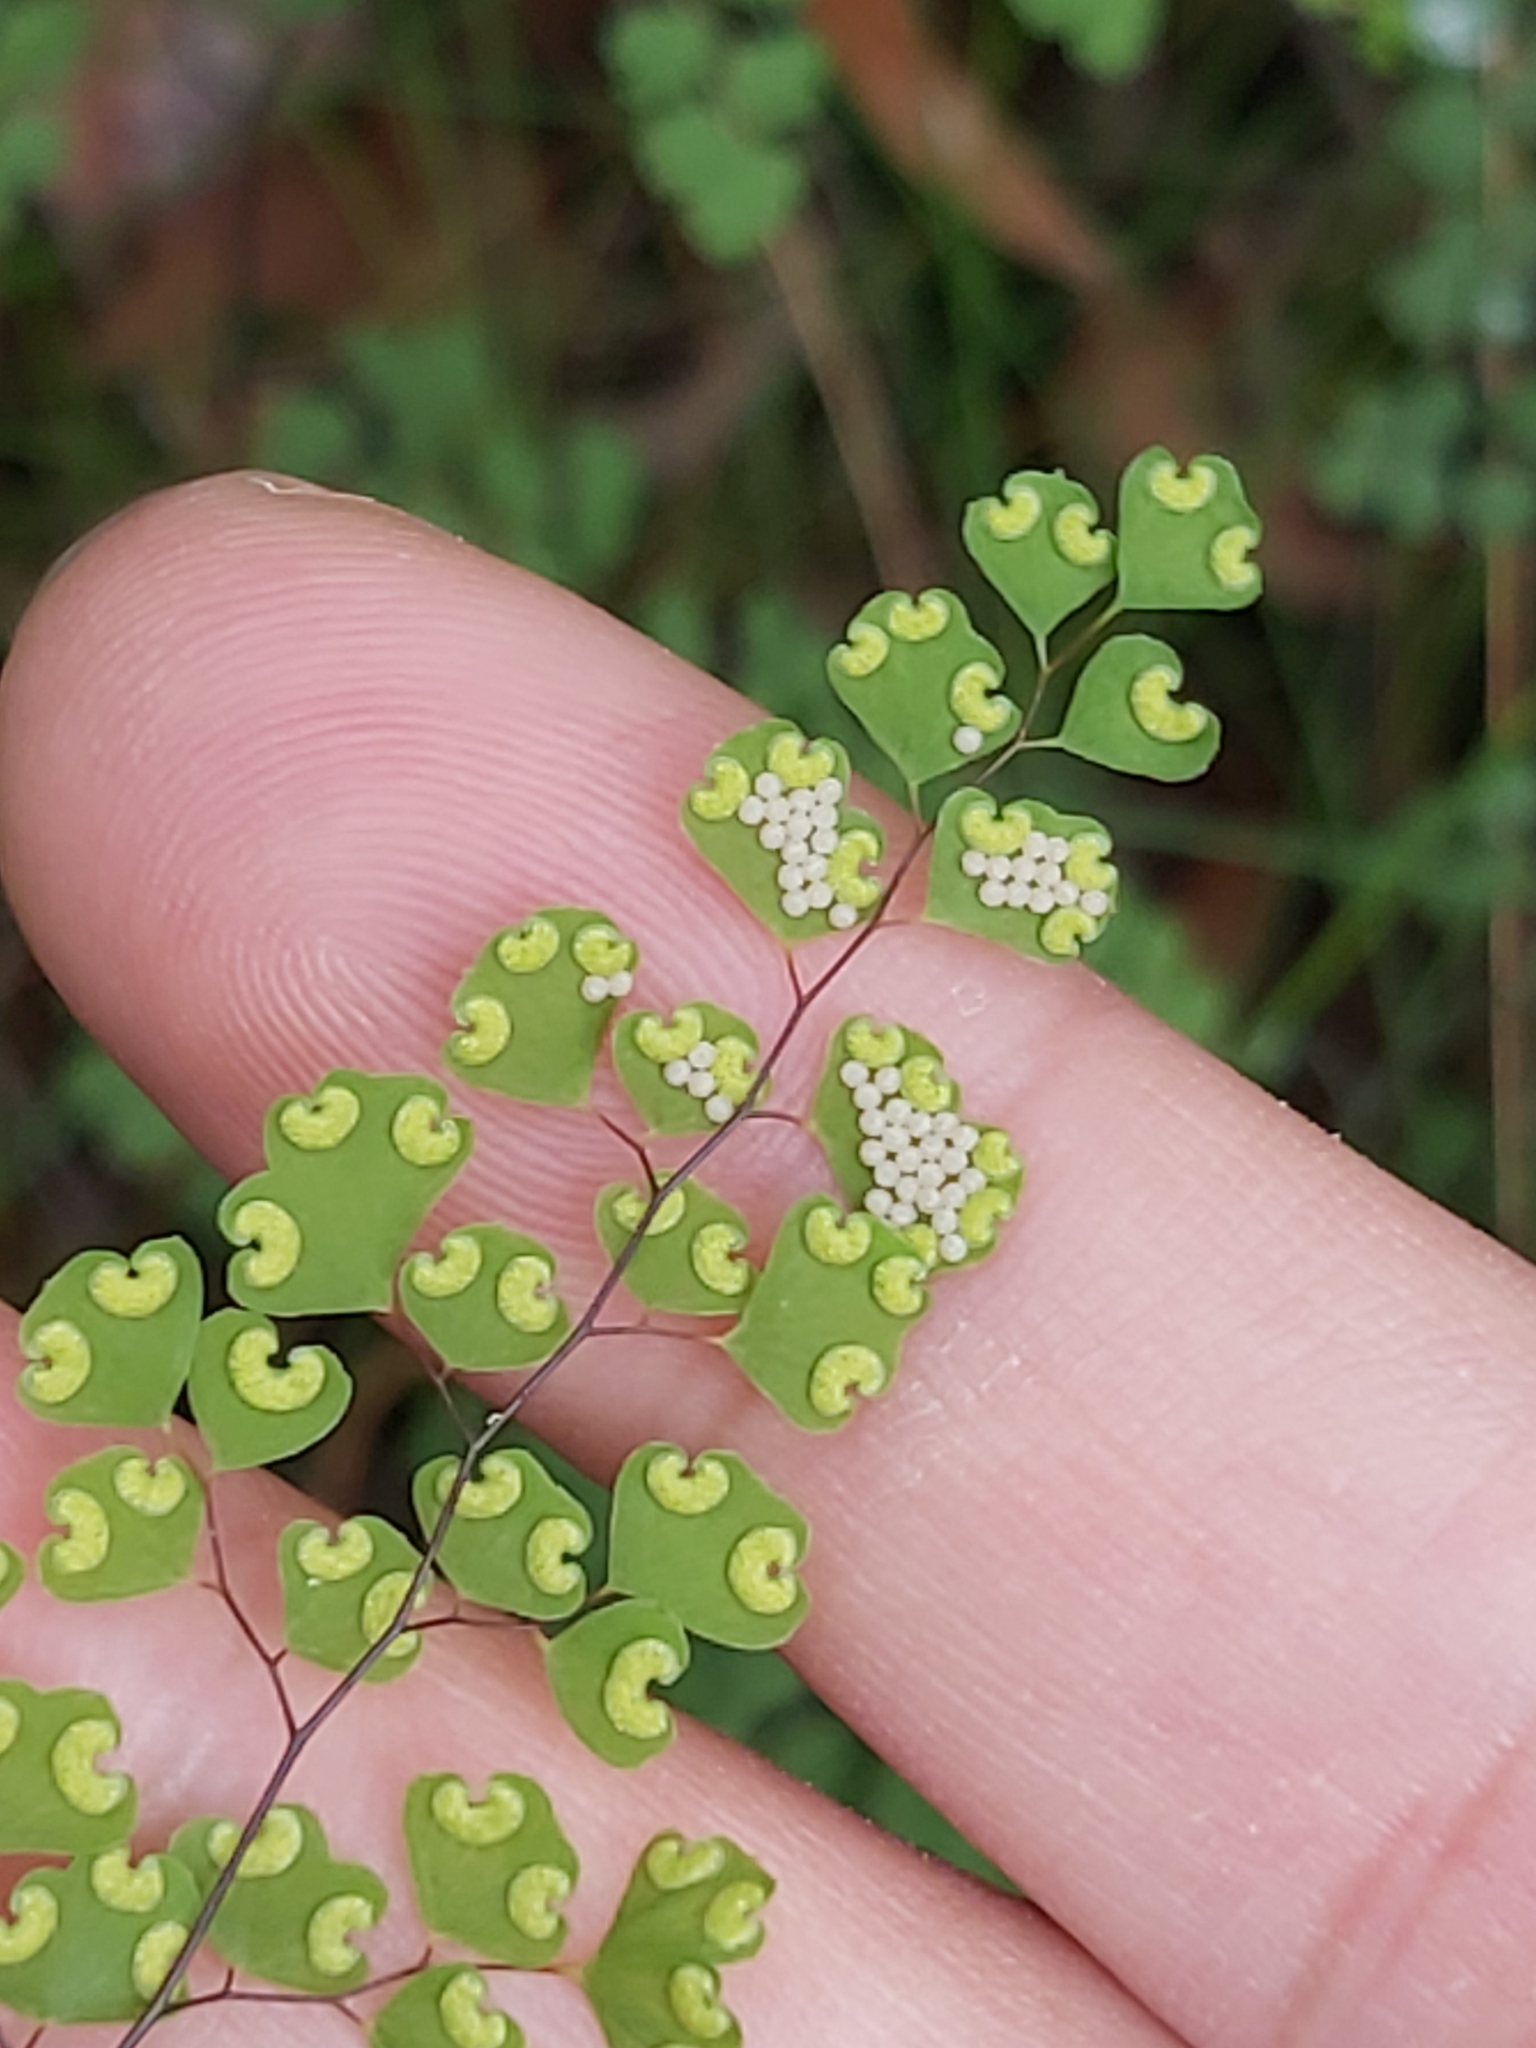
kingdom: Plantae
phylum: Tracheophyta
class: Polypodiopsida
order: Polypodiales
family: Pteridaceae
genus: Adiantum
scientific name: Adiantum aethiopicum
